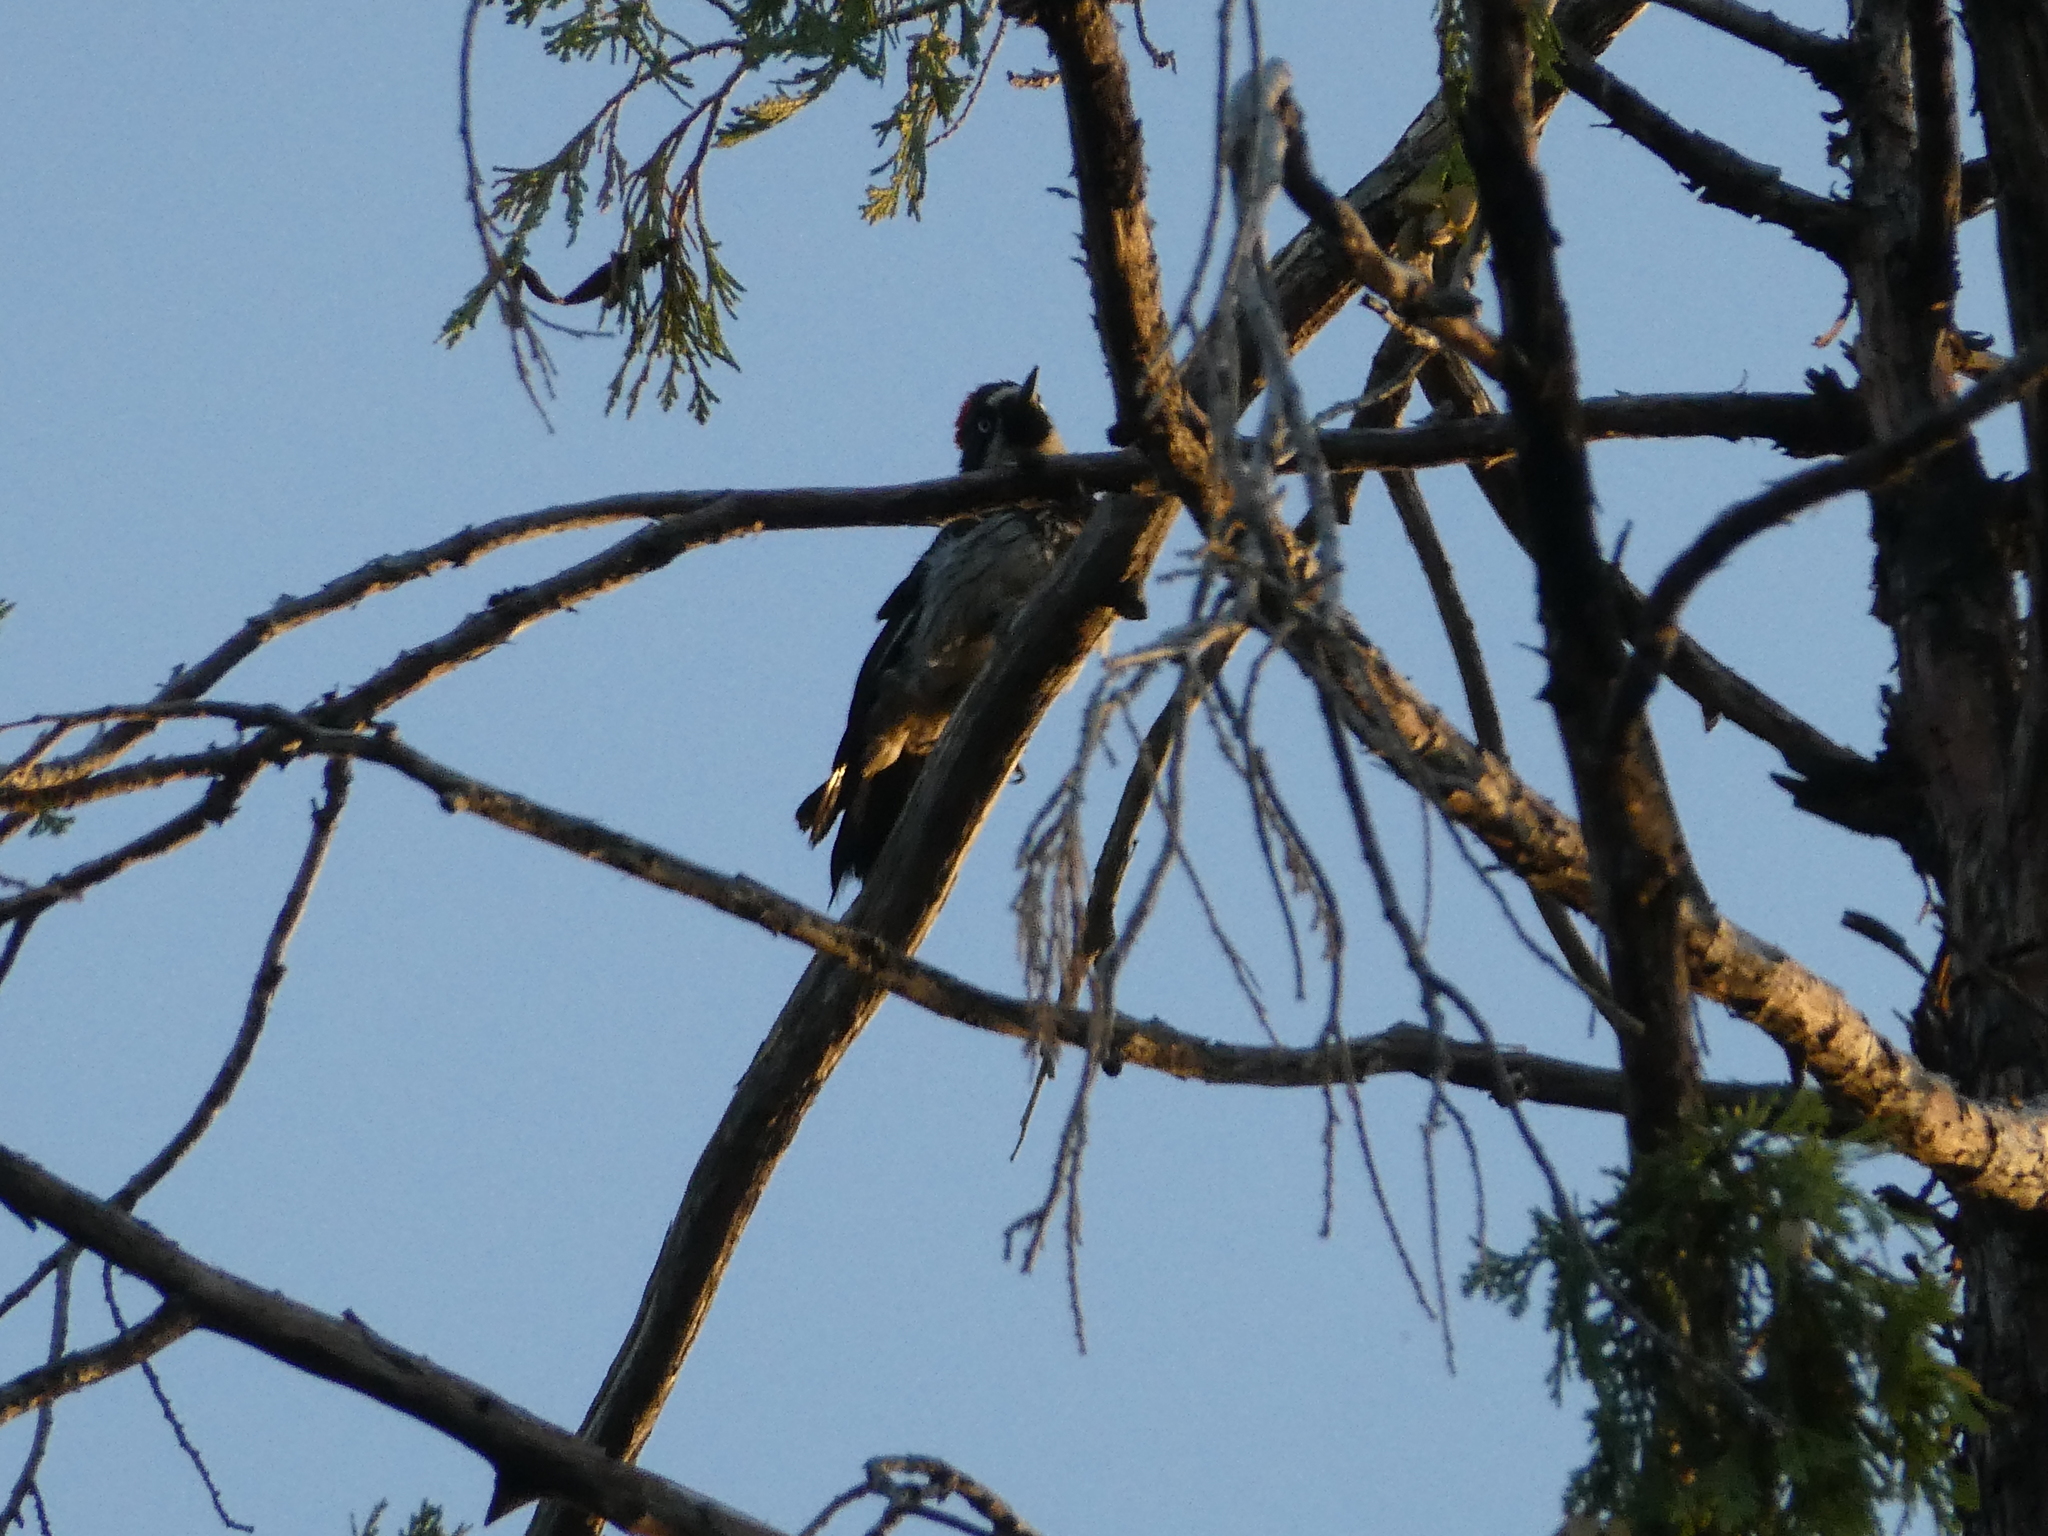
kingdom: Animalia
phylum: Chordata
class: Aves
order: Piciformes
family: Picidae
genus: Melanerpes
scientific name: Melanerpes formicivorus
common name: Acorn woodpecker
